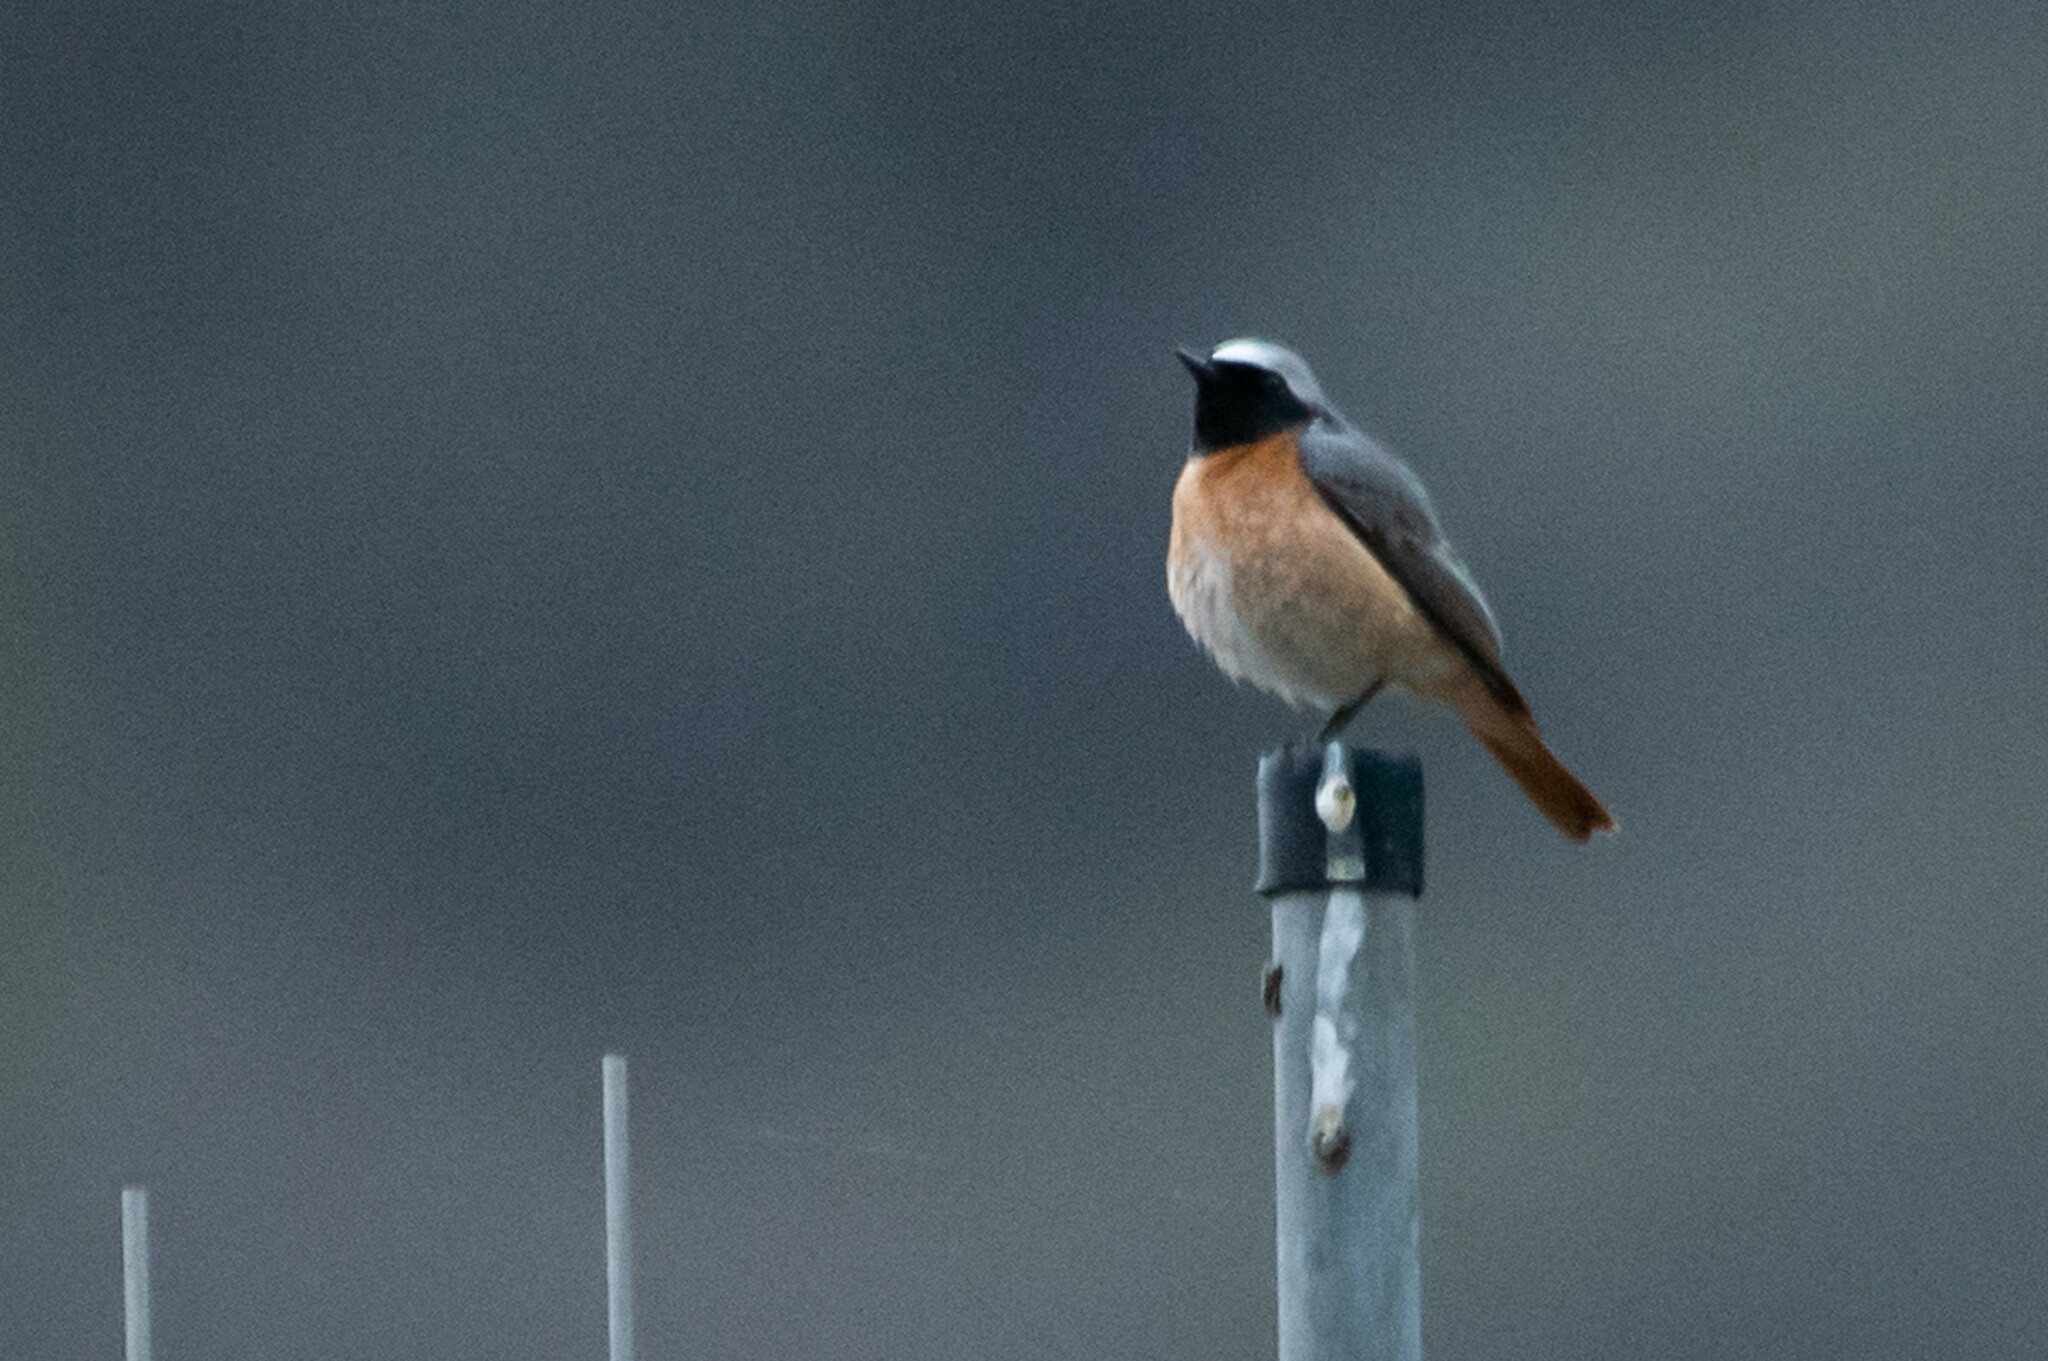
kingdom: Animalia
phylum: Chordata
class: Aves
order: Passeriformes
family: Muscicapidae
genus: Phoenicurus
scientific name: Phoenicurus phoenicurus
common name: Common redstart
